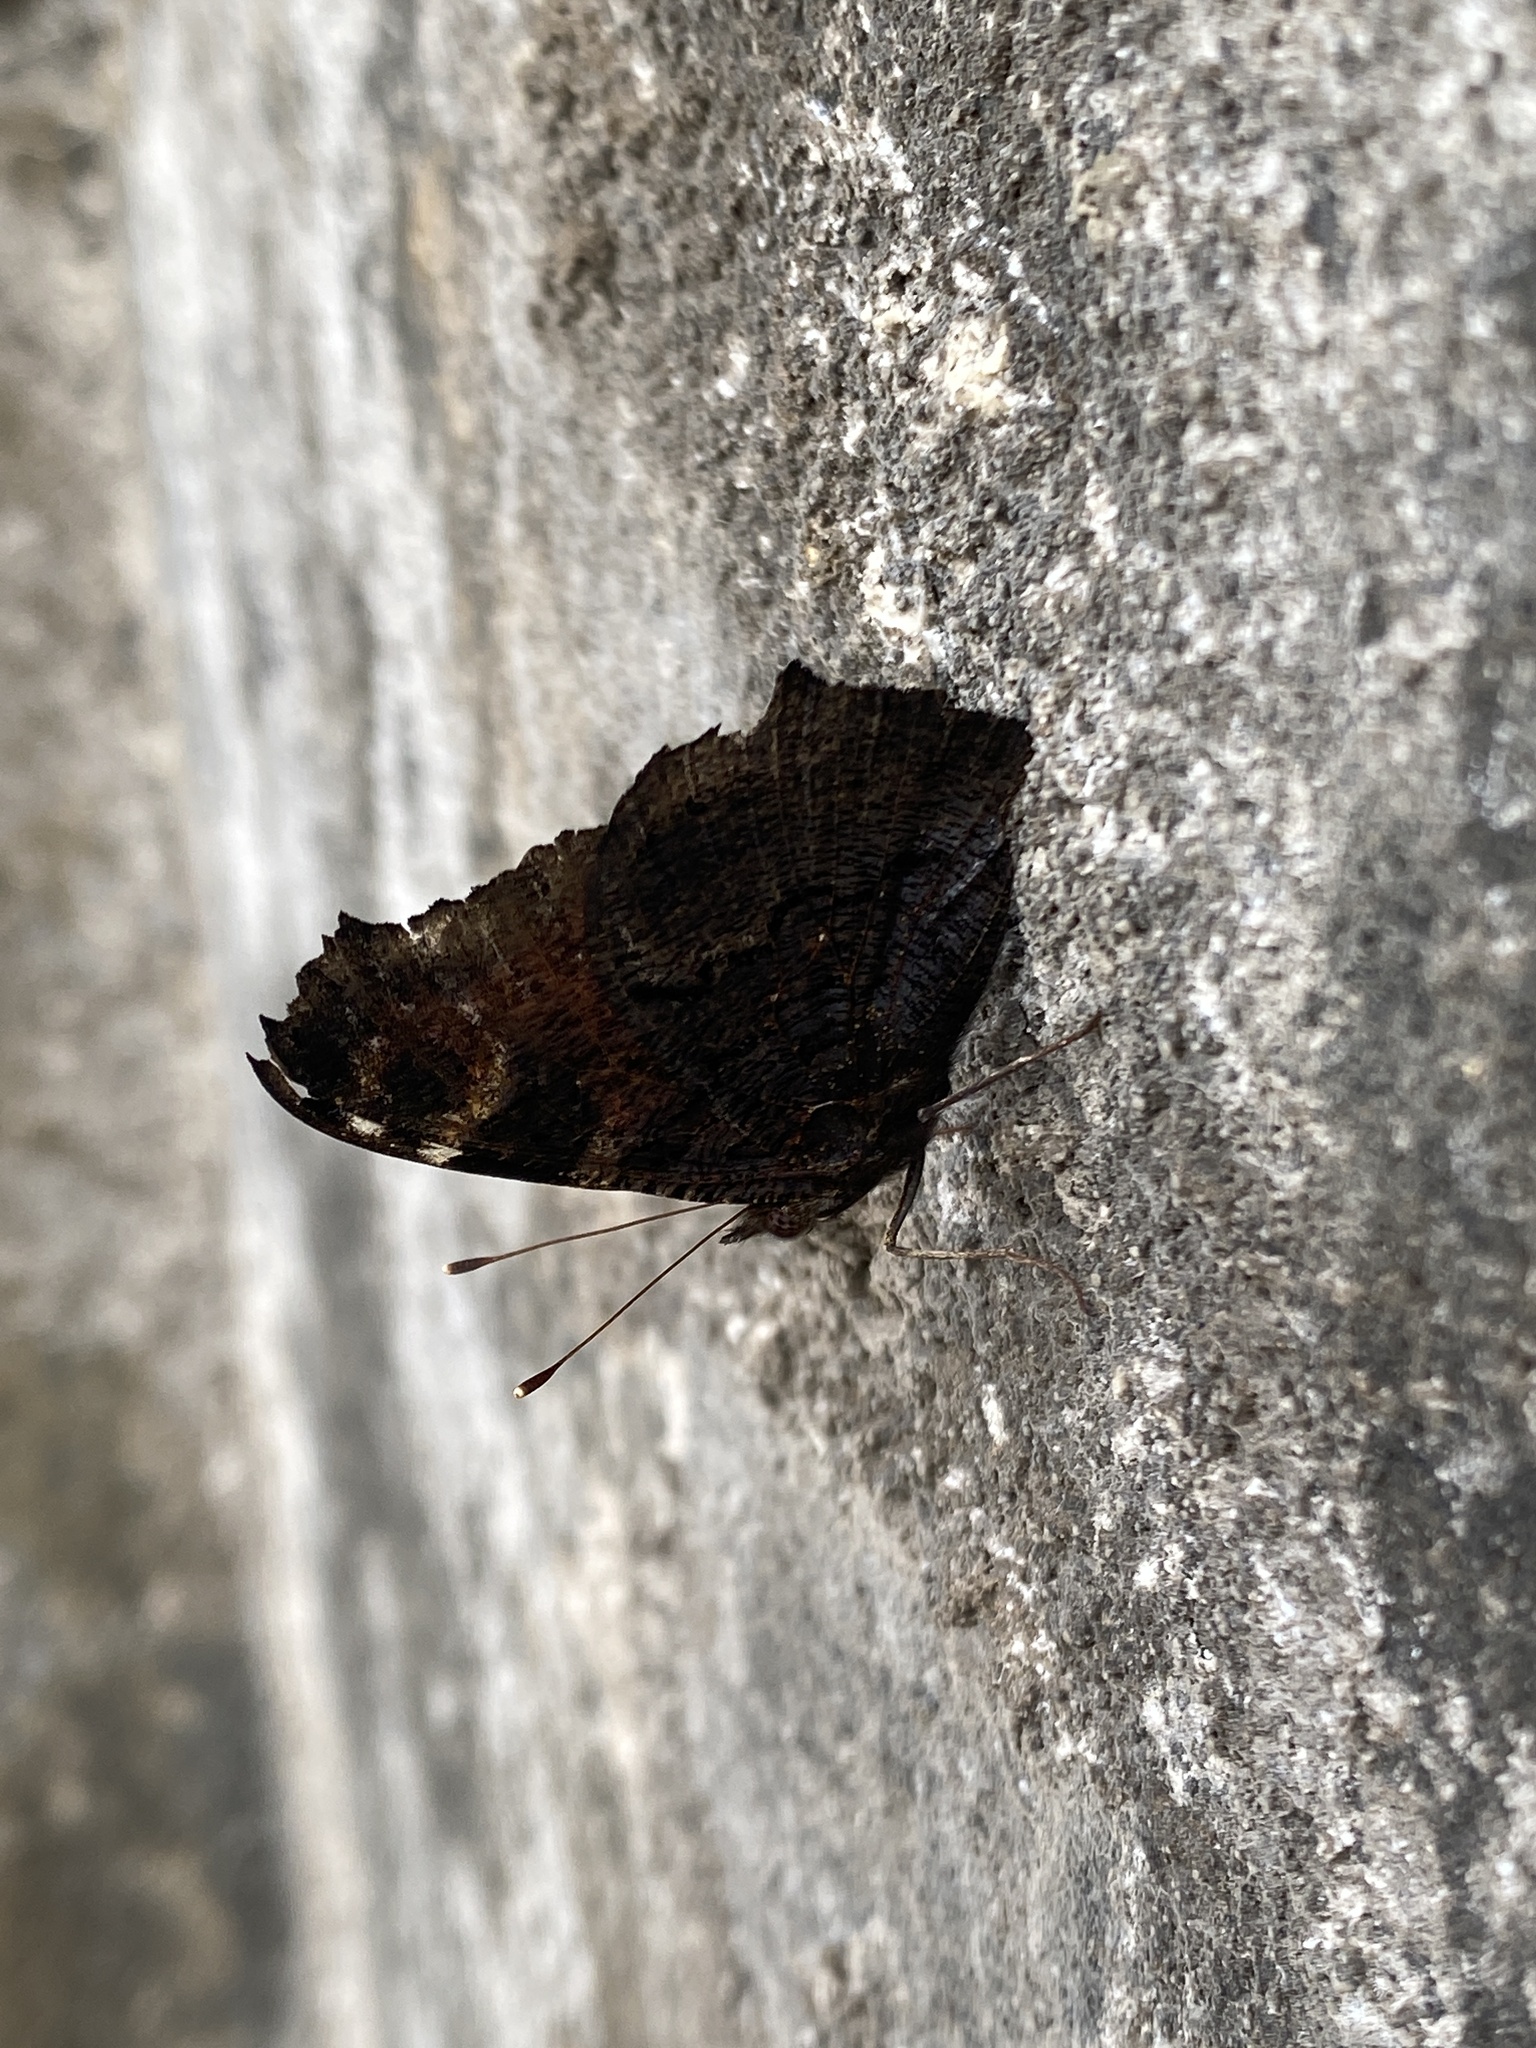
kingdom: Animalia
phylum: Arthropoda
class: Insecta
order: Lepidoptera
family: Nymphalidae
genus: Aglais
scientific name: Aglais io
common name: Peacock
